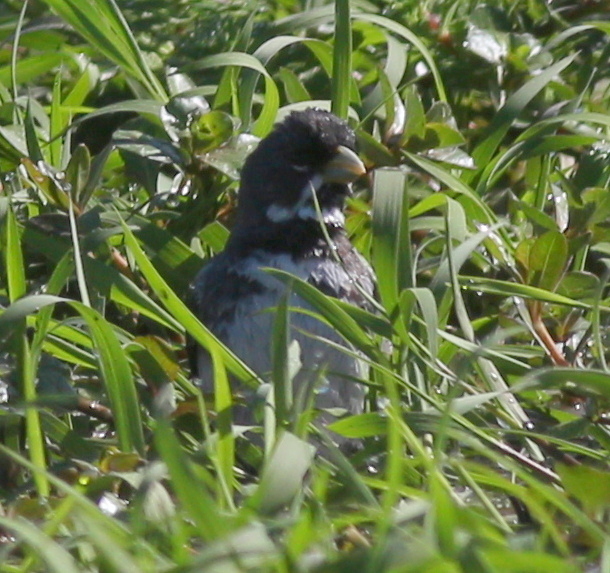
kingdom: Animalia
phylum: Chordata
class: Aves
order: Passeriformes
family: Thraupidae
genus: Sporophila
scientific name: Sporophila caerulescens
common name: Double-collared seedeater
